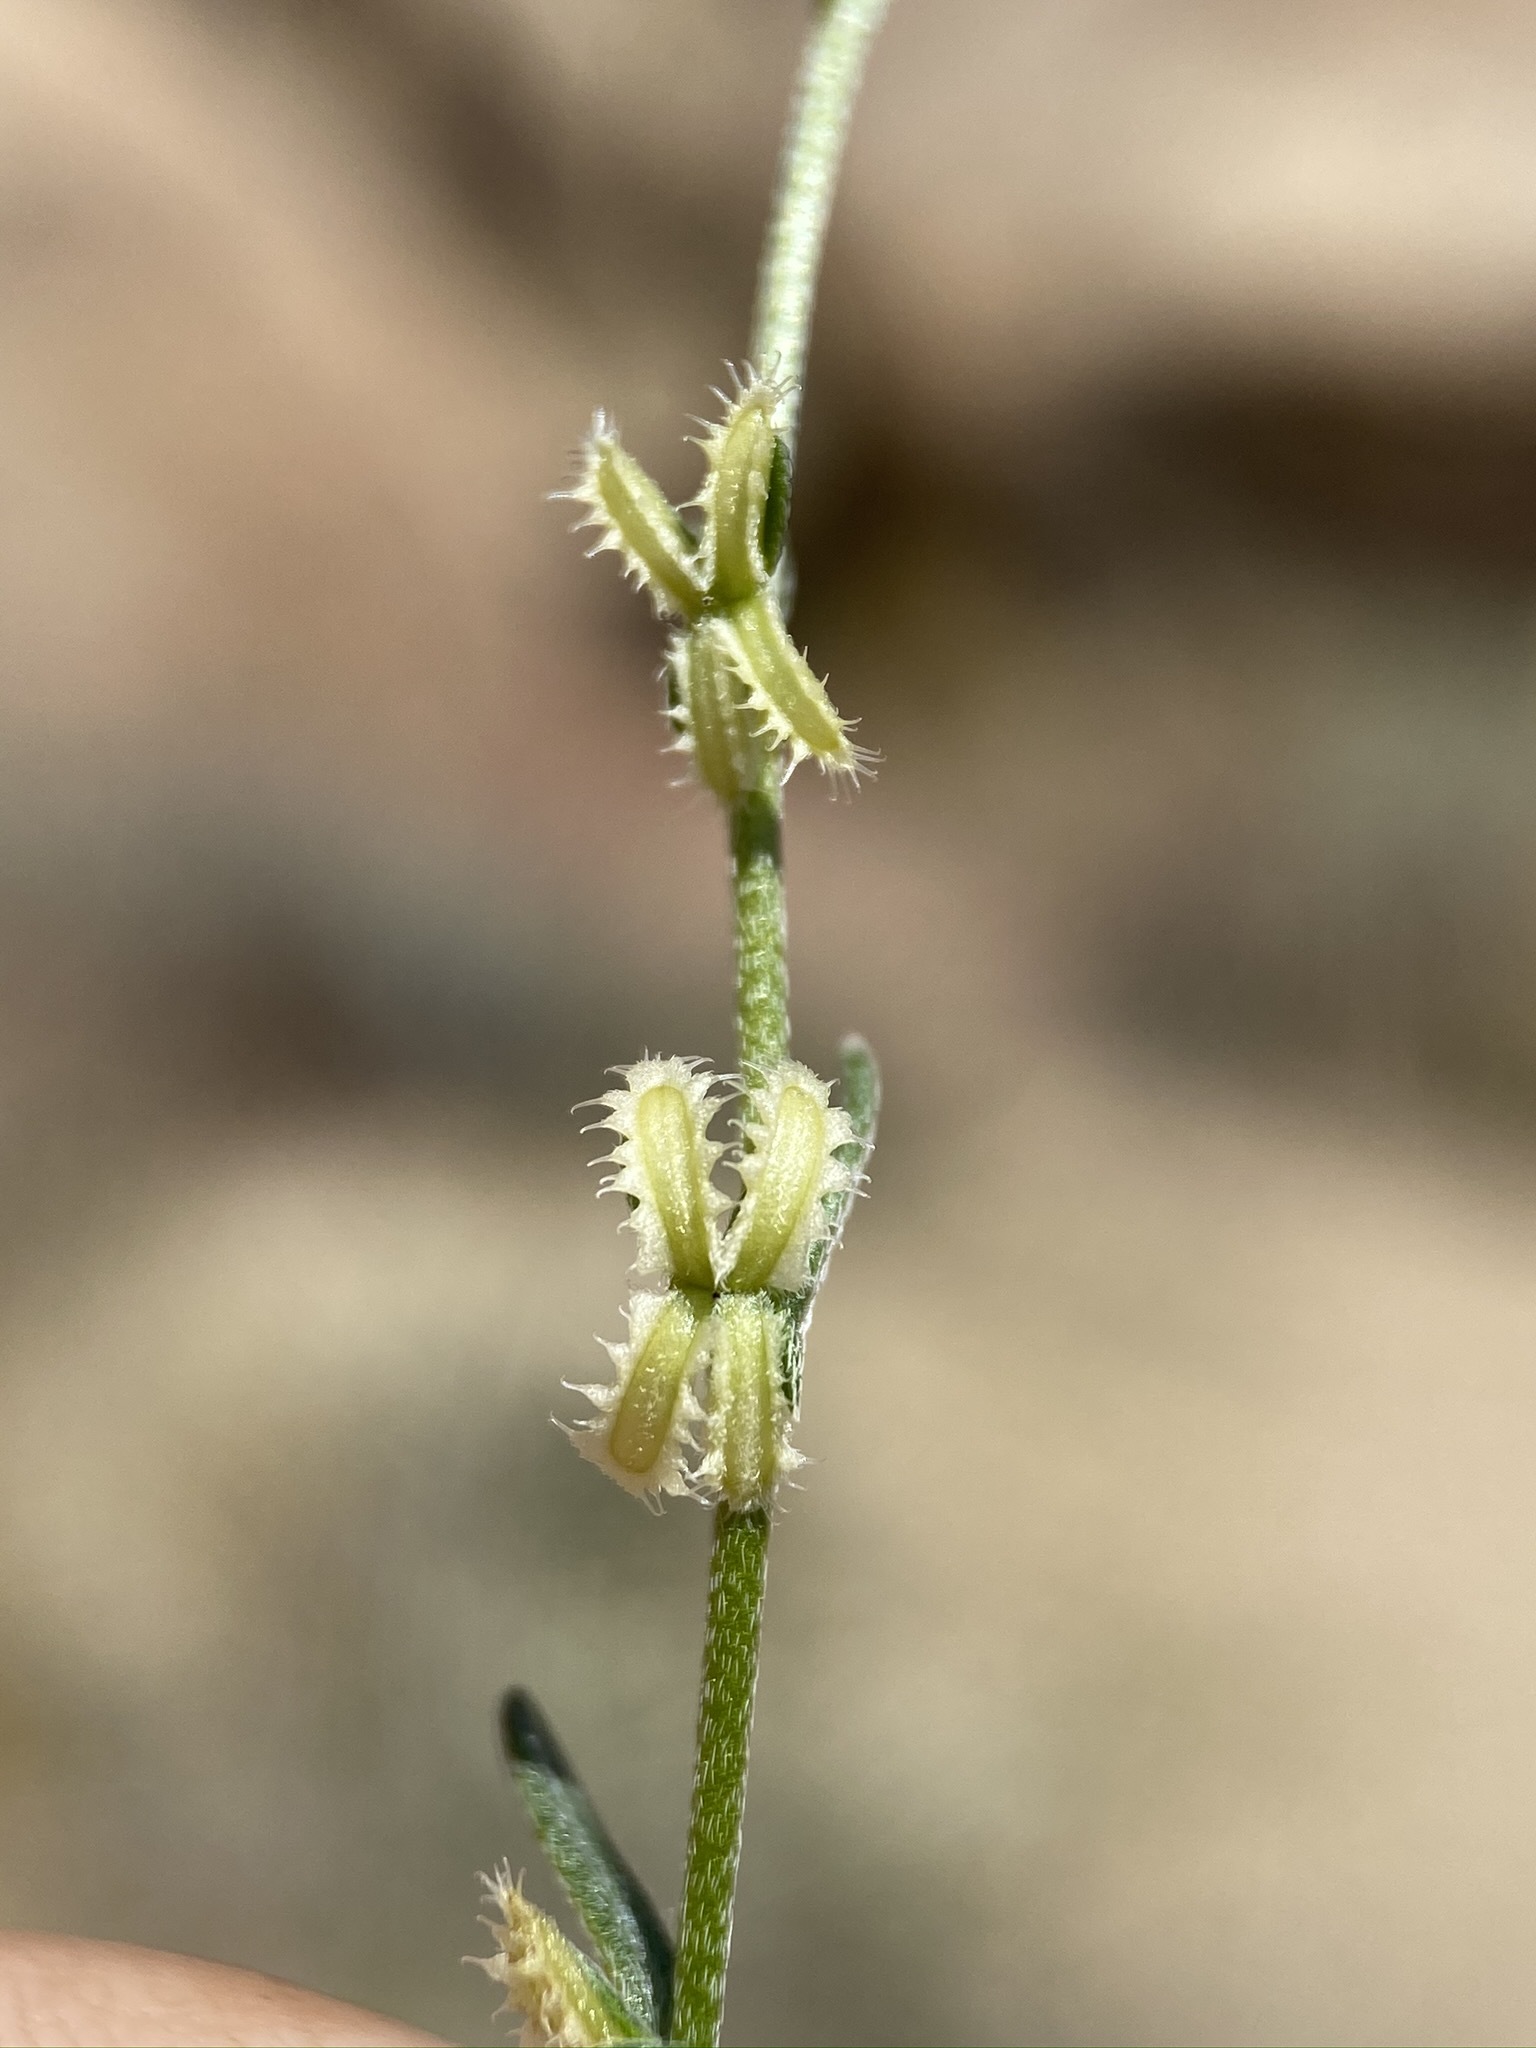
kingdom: Plantae
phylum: Tracheophyta
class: Magnoliopsida
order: Boraginales
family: Boraginaceae
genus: Pectocarya
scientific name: Pectocarya linearis
